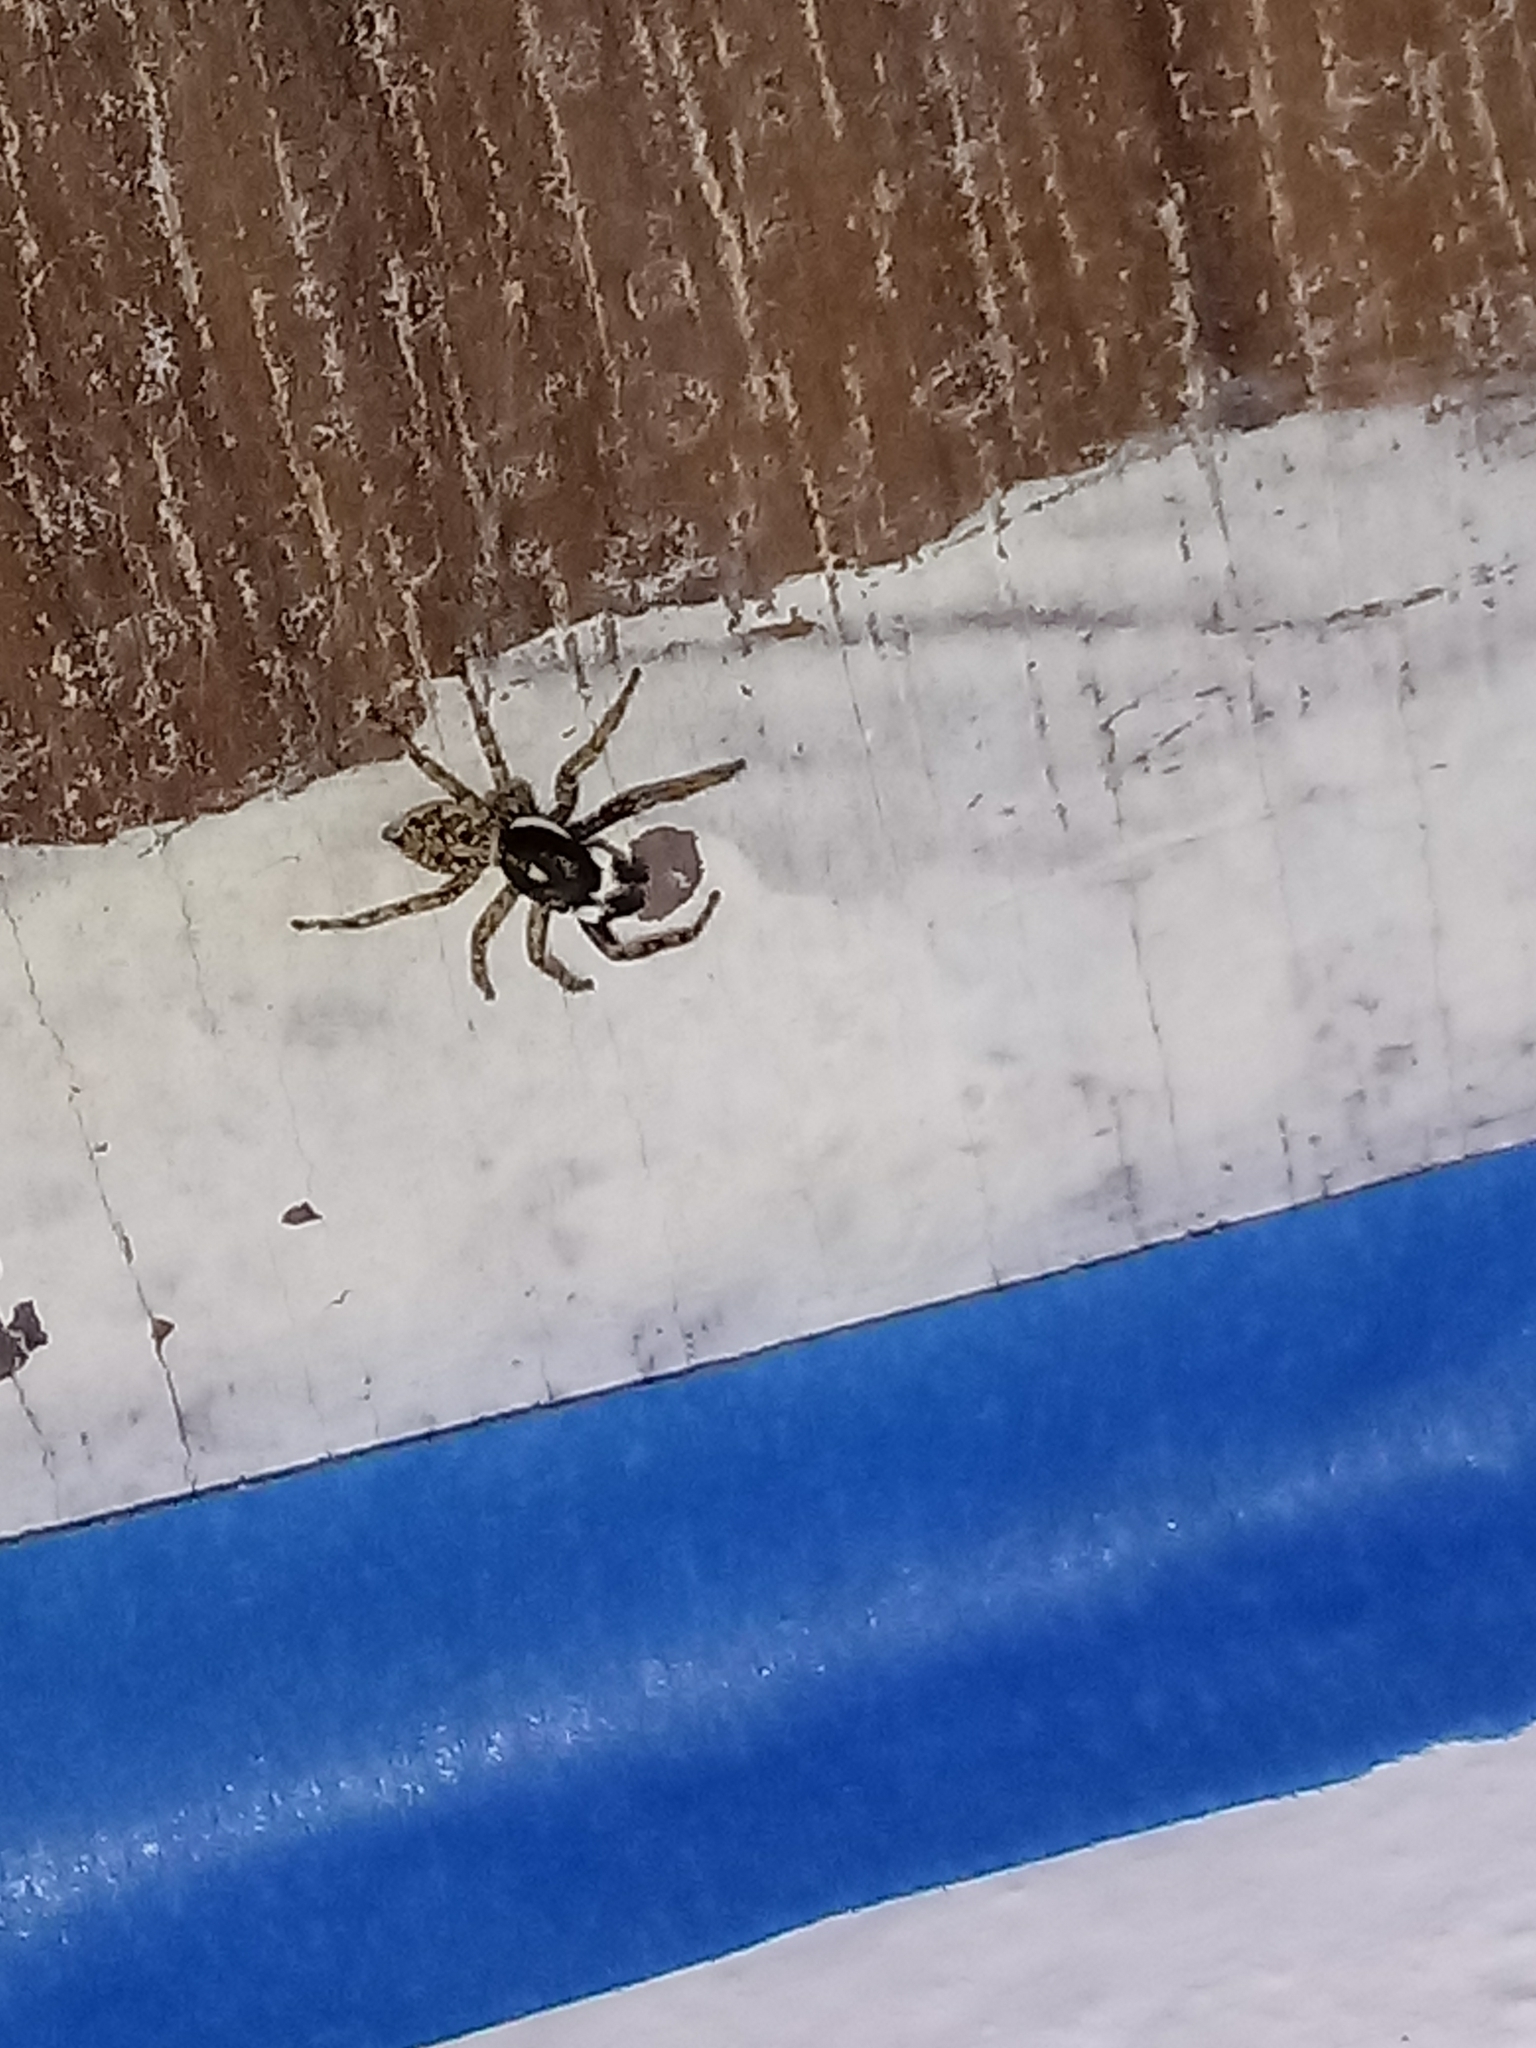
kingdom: Animalia
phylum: Arthropoda
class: Arachnida
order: Araneae
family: Salticidae
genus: Menemerus
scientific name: Menemerus semilimbatus
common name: Jumping spider
